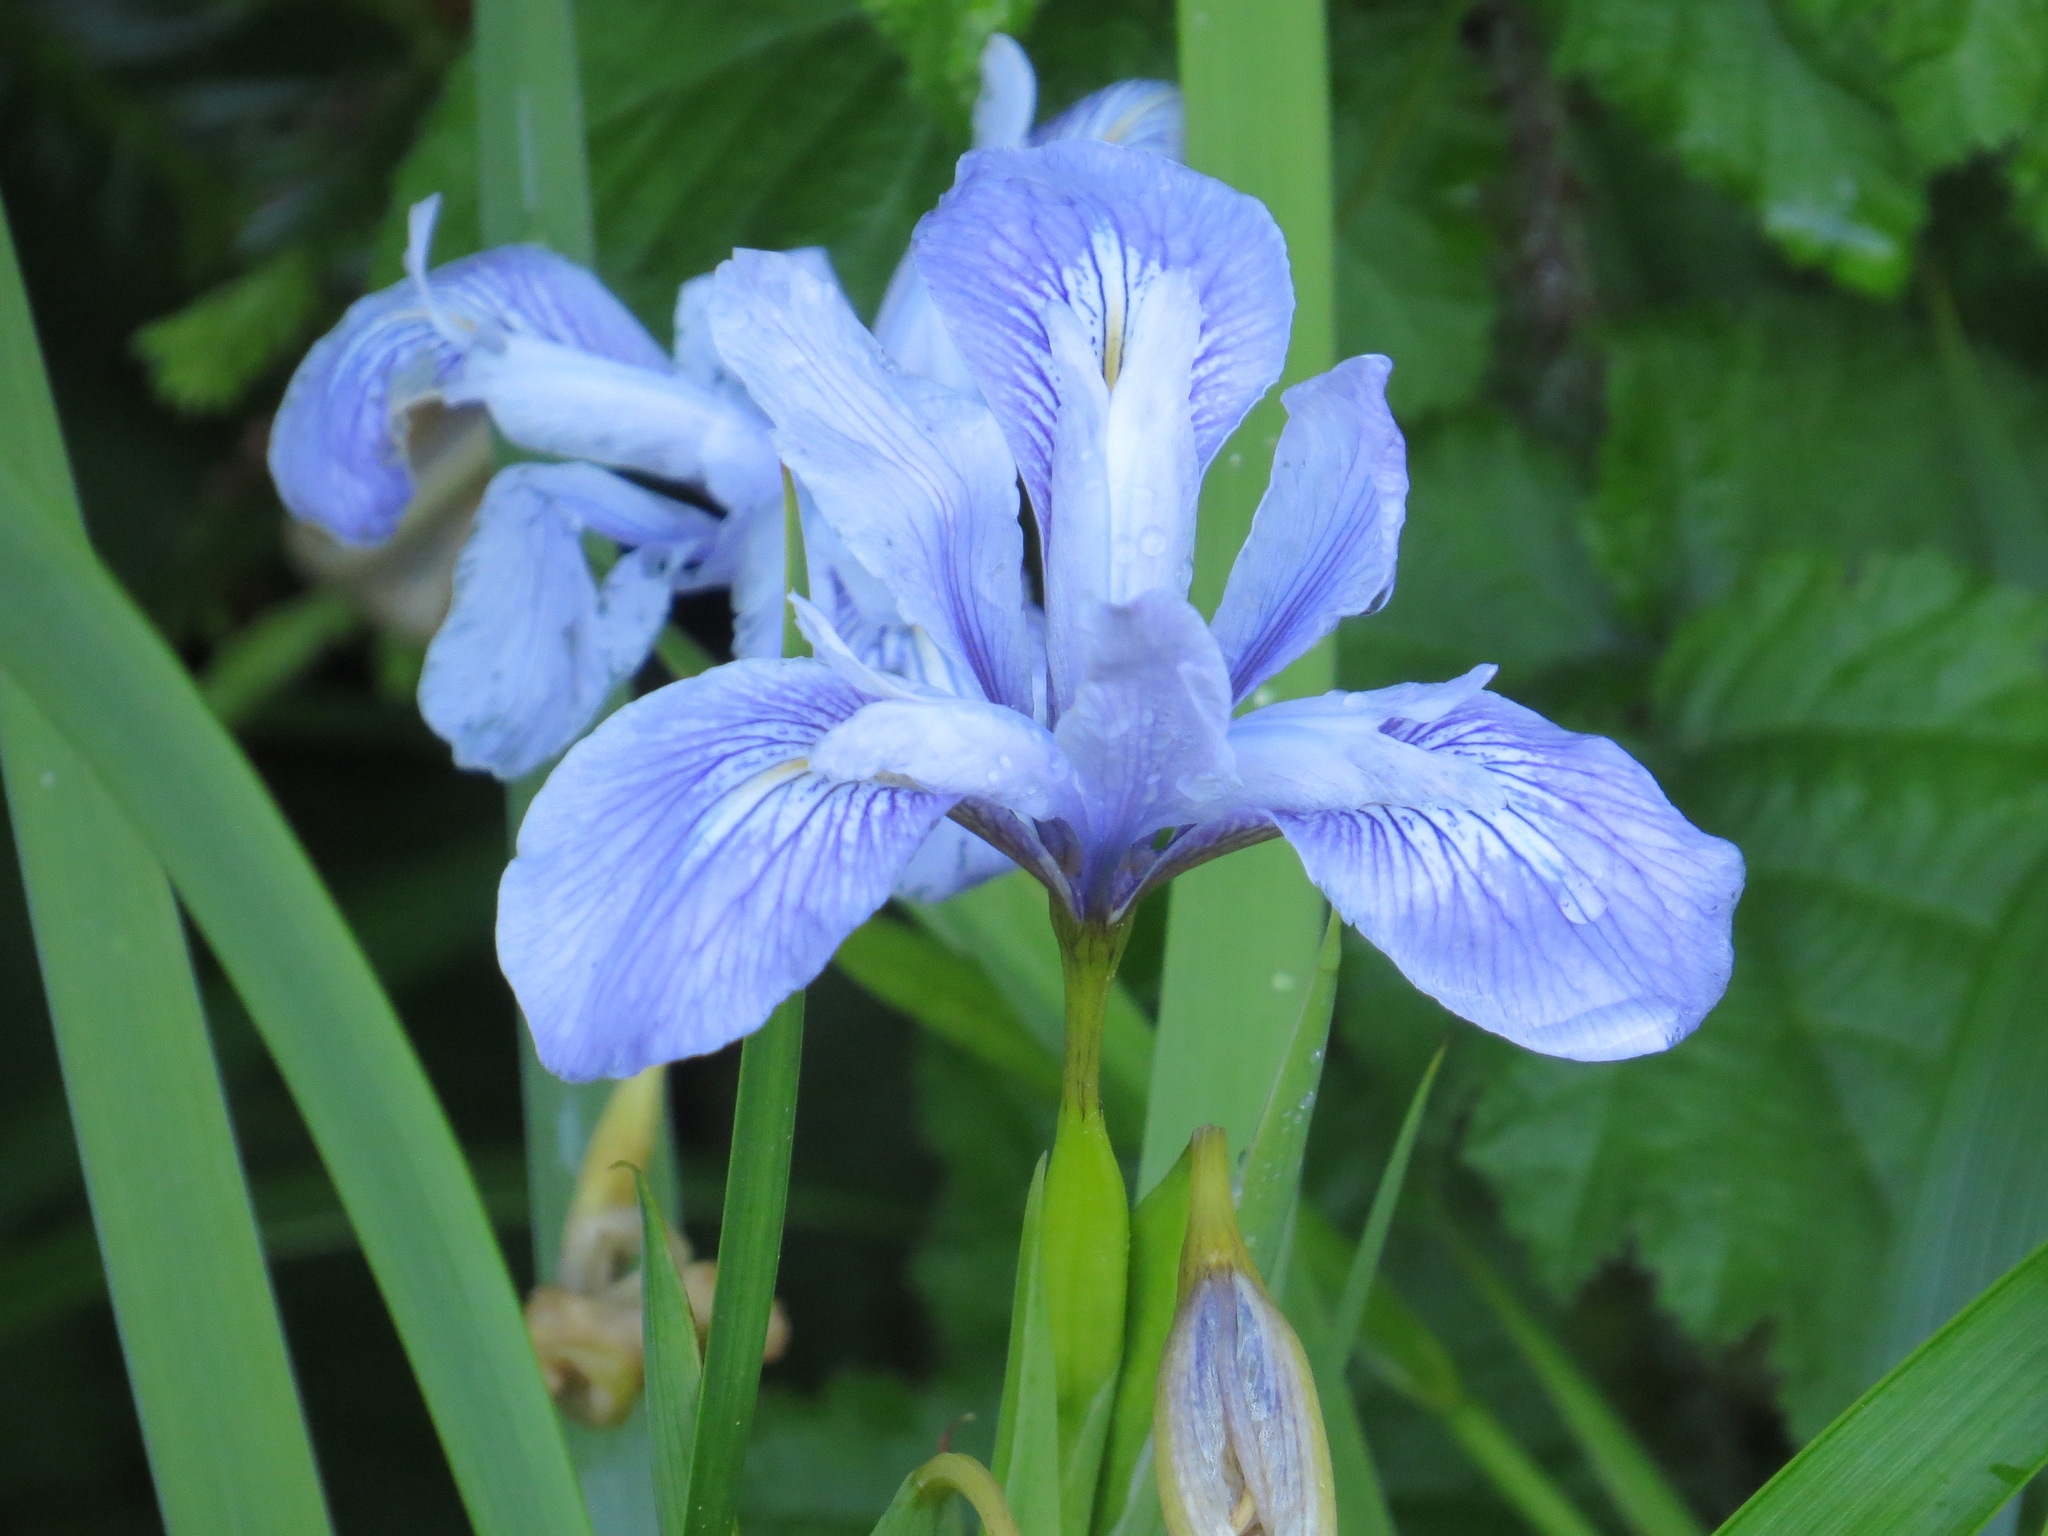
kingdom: Plantae
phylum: Tracheophyta
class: Liliopsida
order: Asparagales
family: Iridaceae
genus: Iris
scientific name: Iris douglasiana
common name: Marin iris
